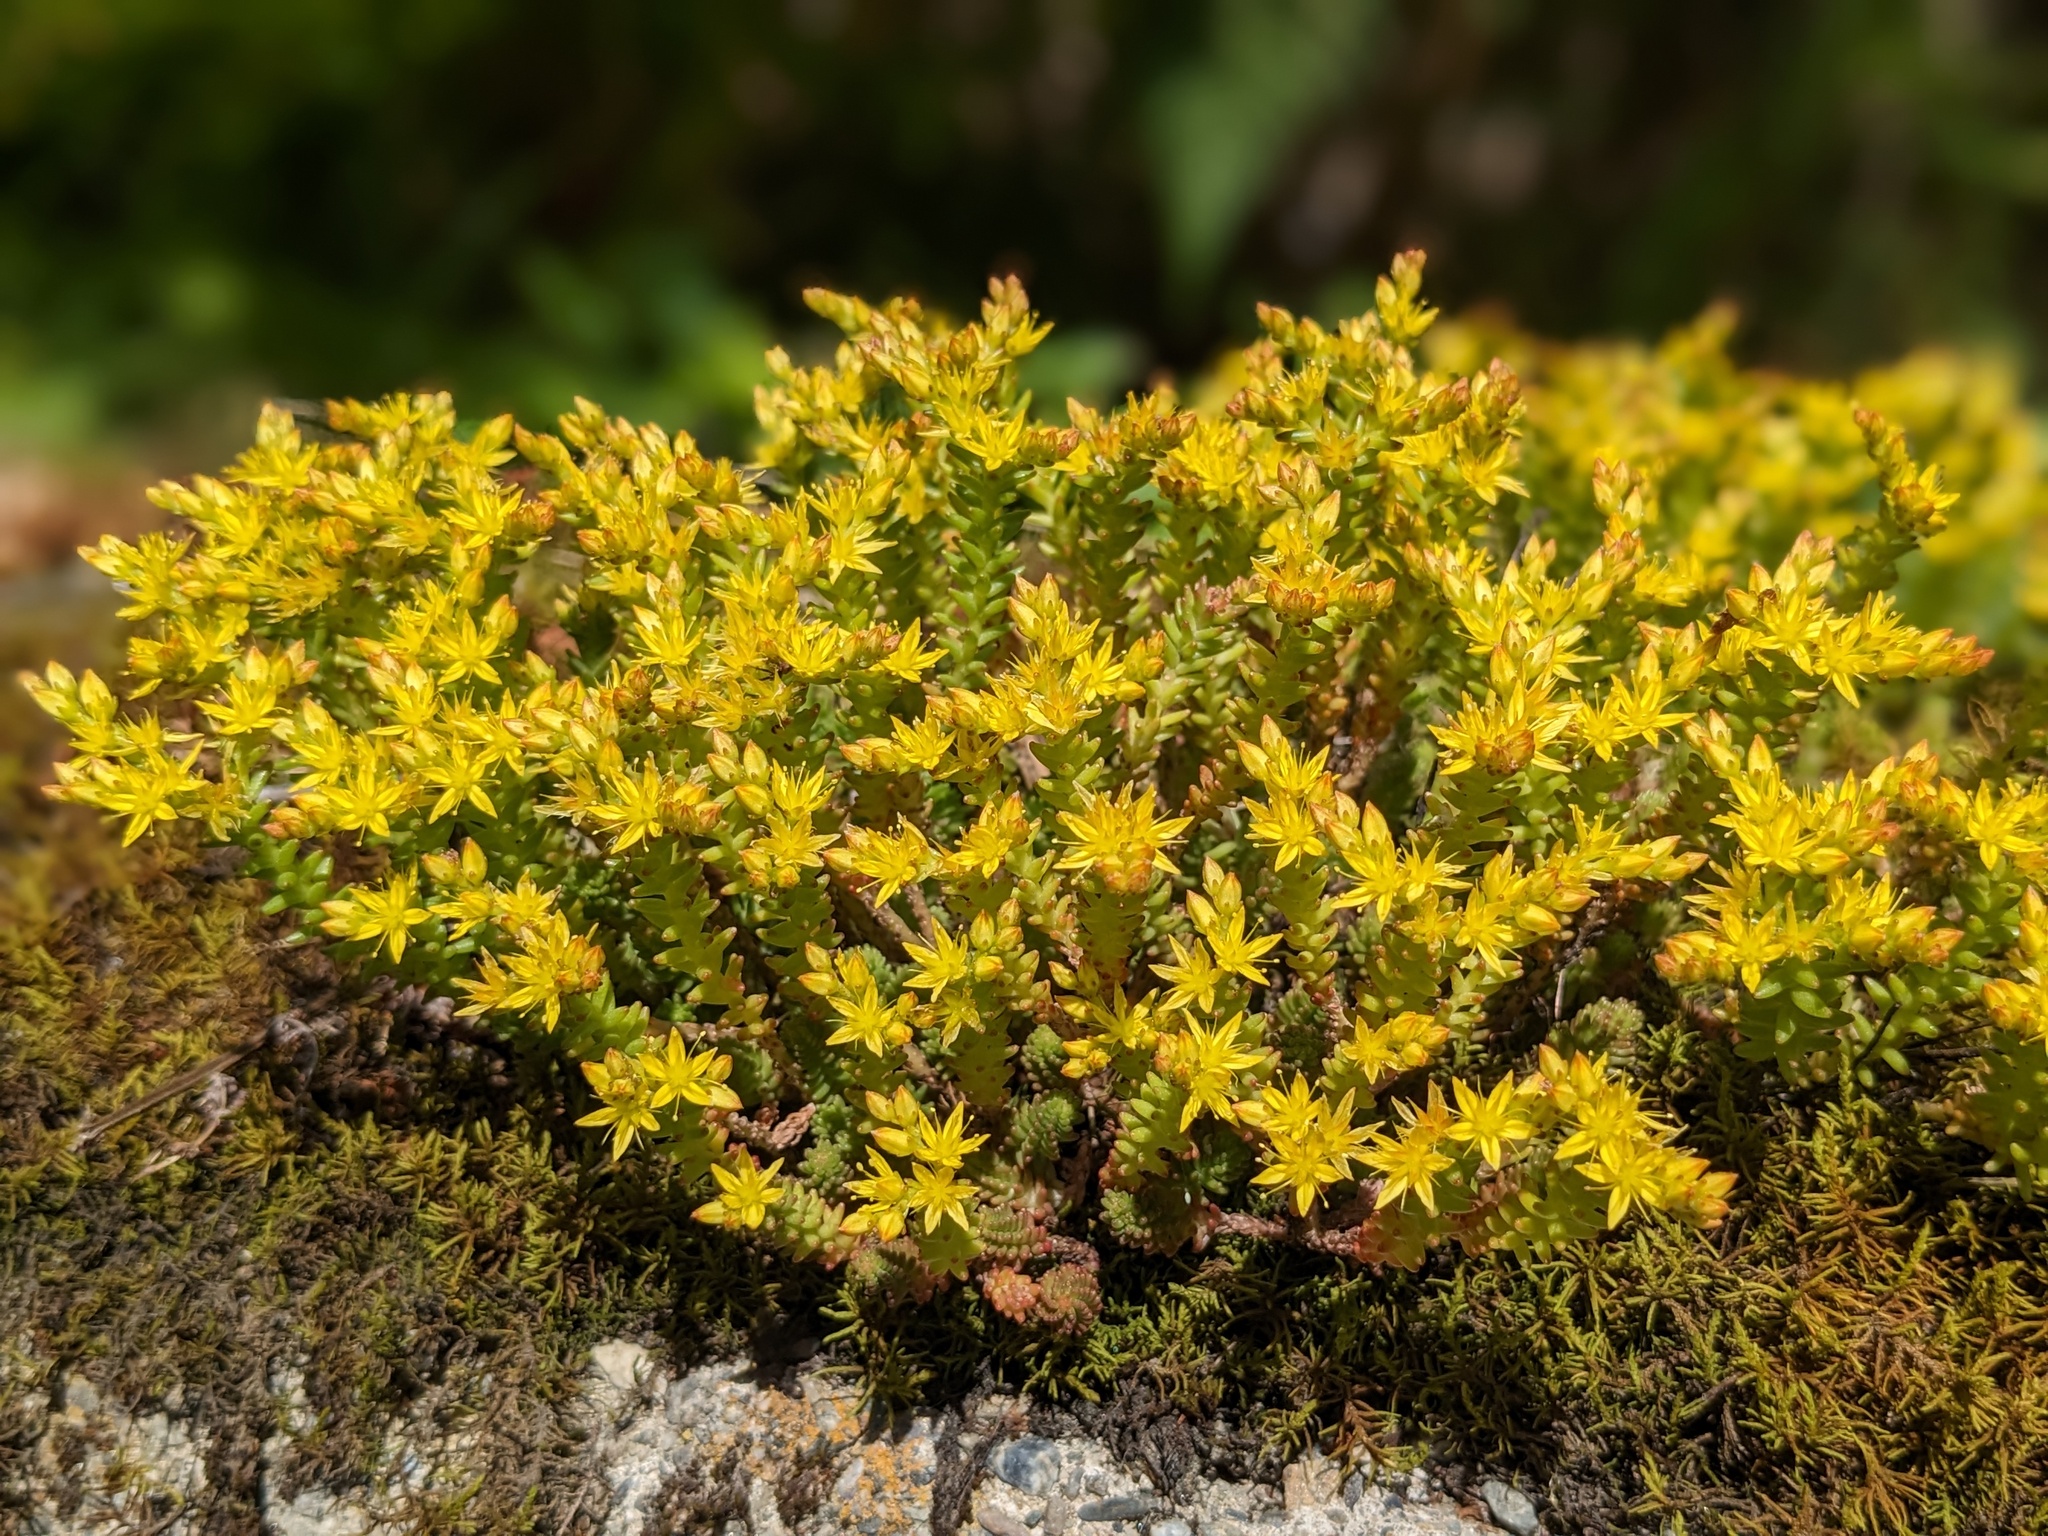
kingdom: Plantae
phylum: Tracheophyta
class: Magnoliopsida
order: Saxifragales
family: Crassulaceae
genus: Sedum
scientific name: Sedum sexangulare
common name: Tasteless stonecrop
